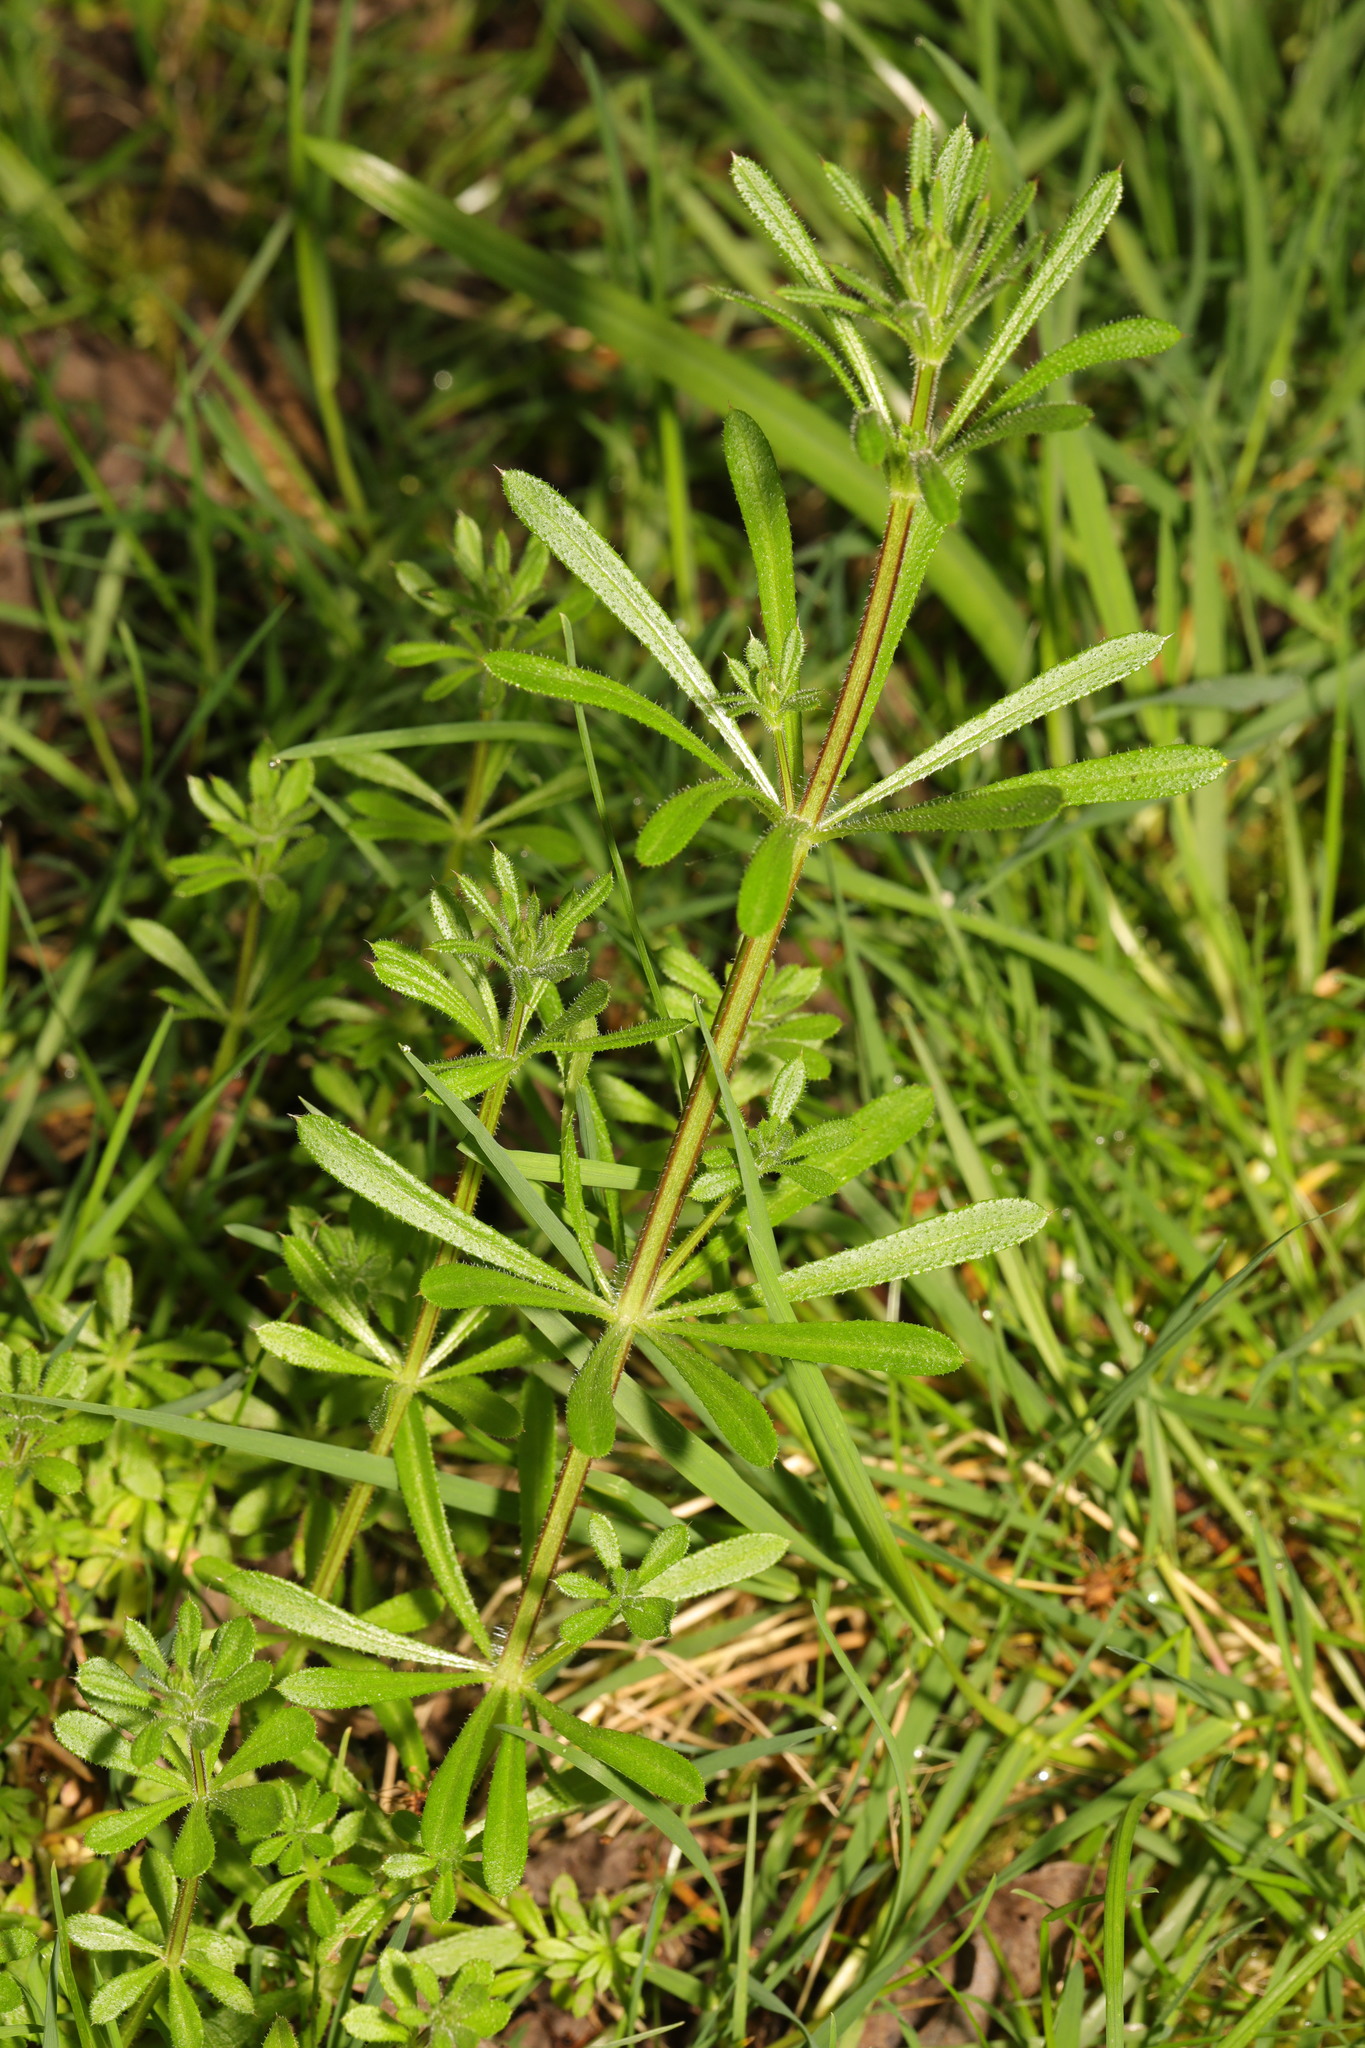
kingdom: Plantae
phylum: Tracheophyta
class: Magnoliopsida
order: Gentianales
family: Rubiaceae
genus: Galium
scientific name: Galium aparine
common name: Cleavers
